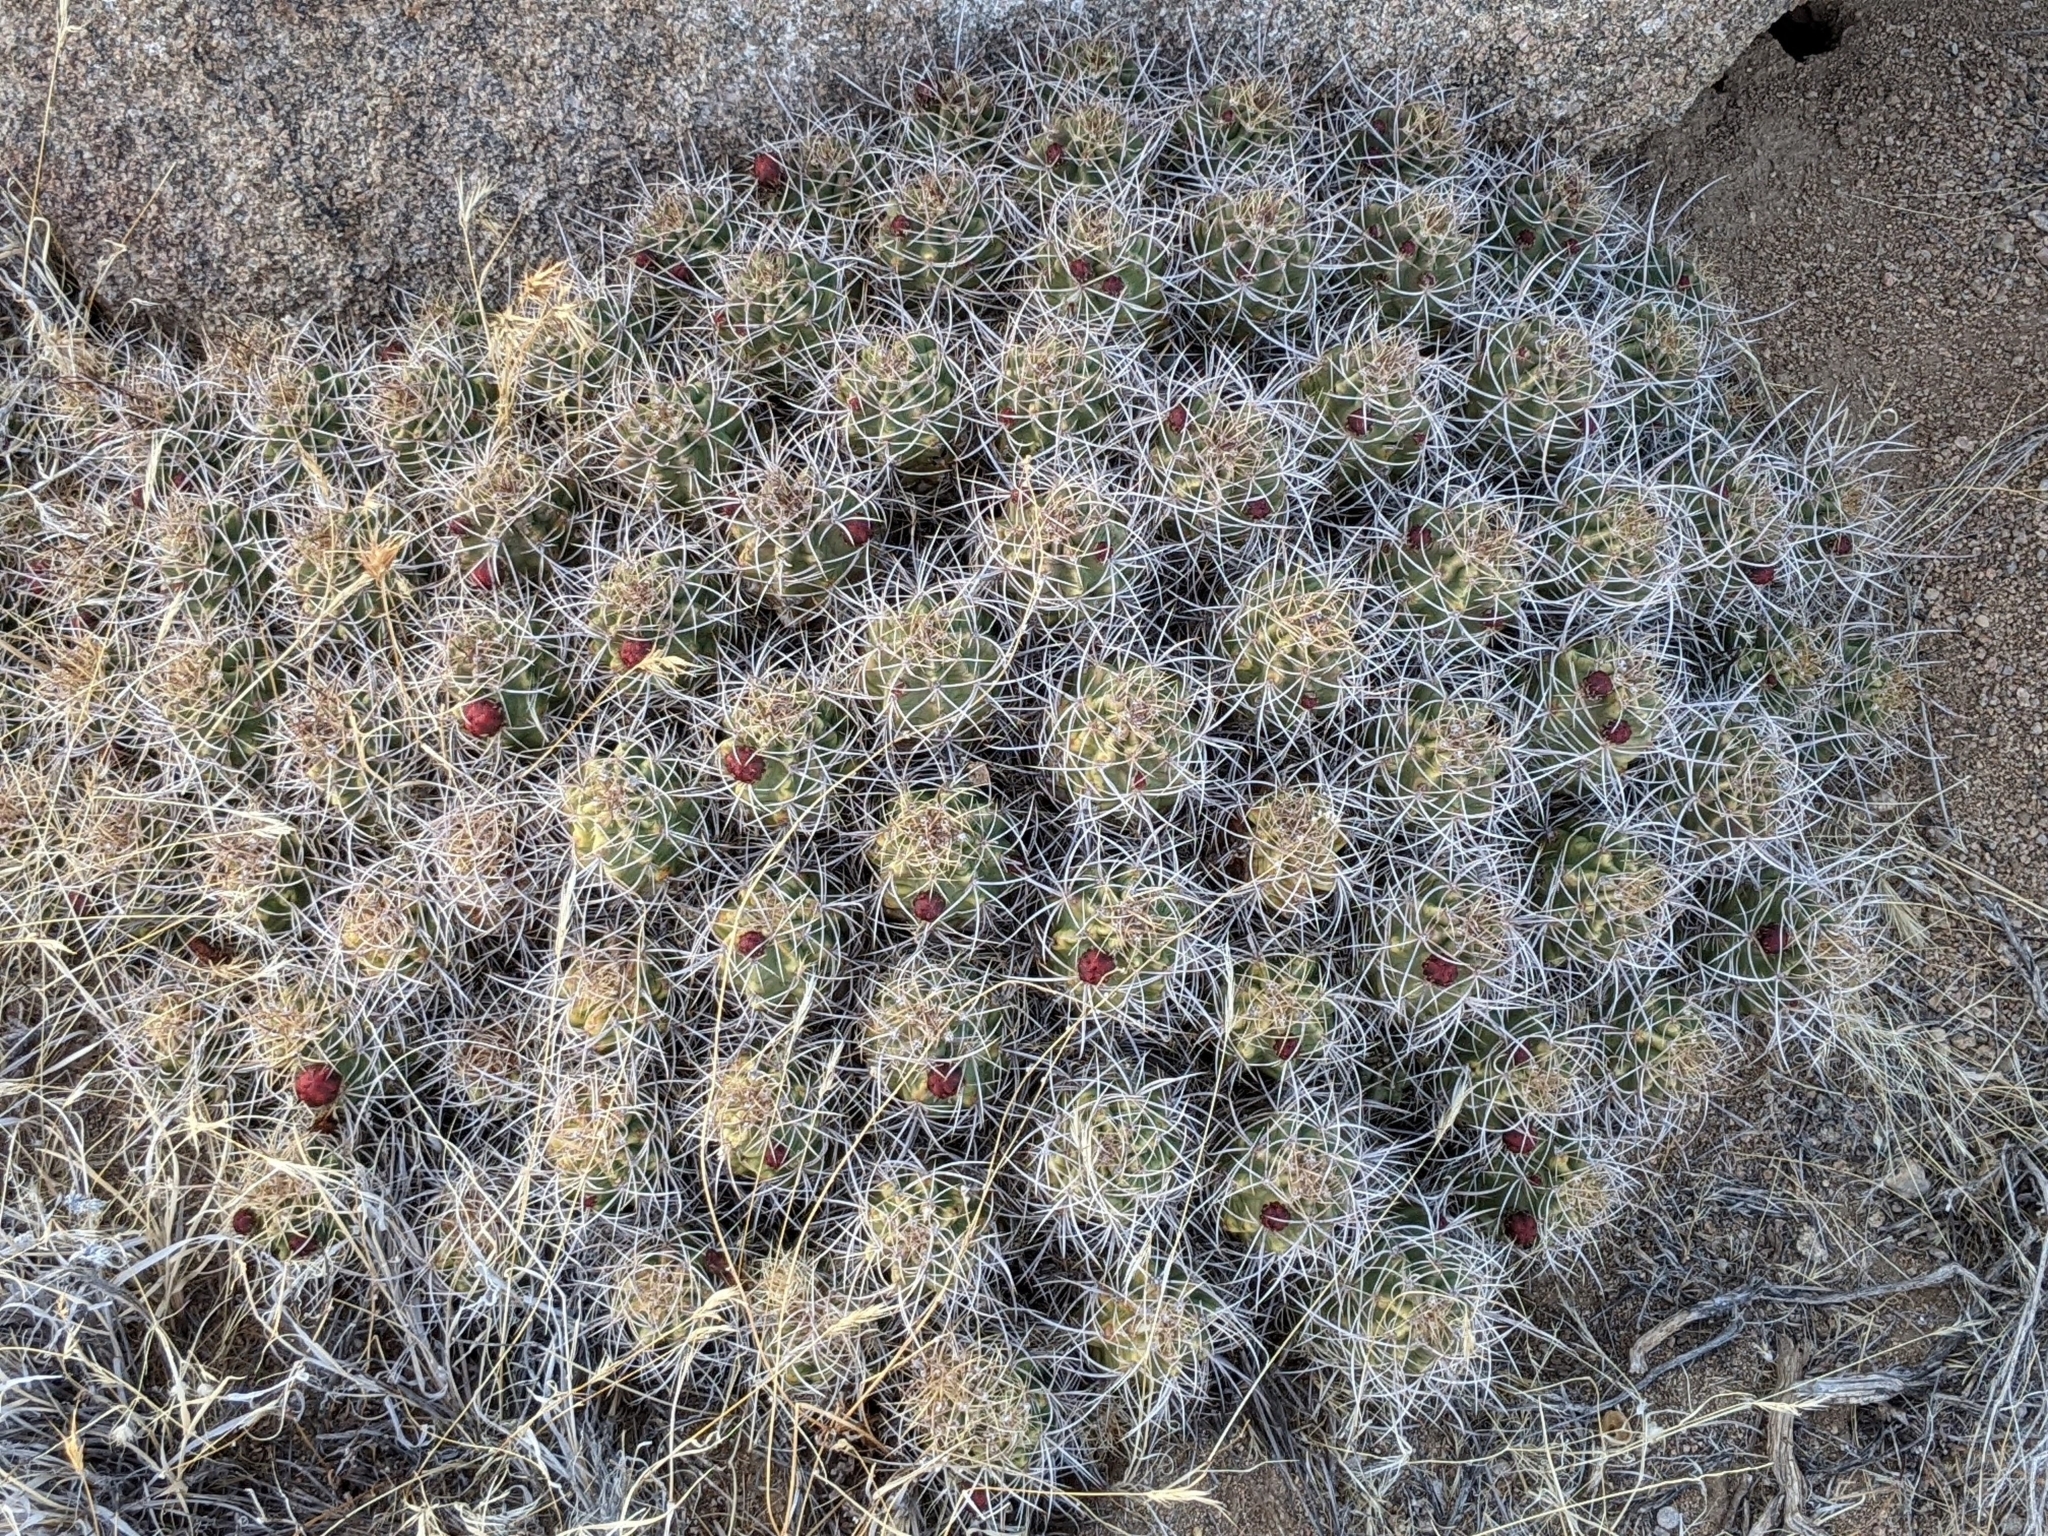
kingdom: Plantae
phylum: Tracheophyta
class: Magnoliopsida
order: Caryophyllales
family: Cactaceae
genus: Echinocereus
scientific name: Echinocereus triglochidiatus
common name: Claretcup hedgehog
